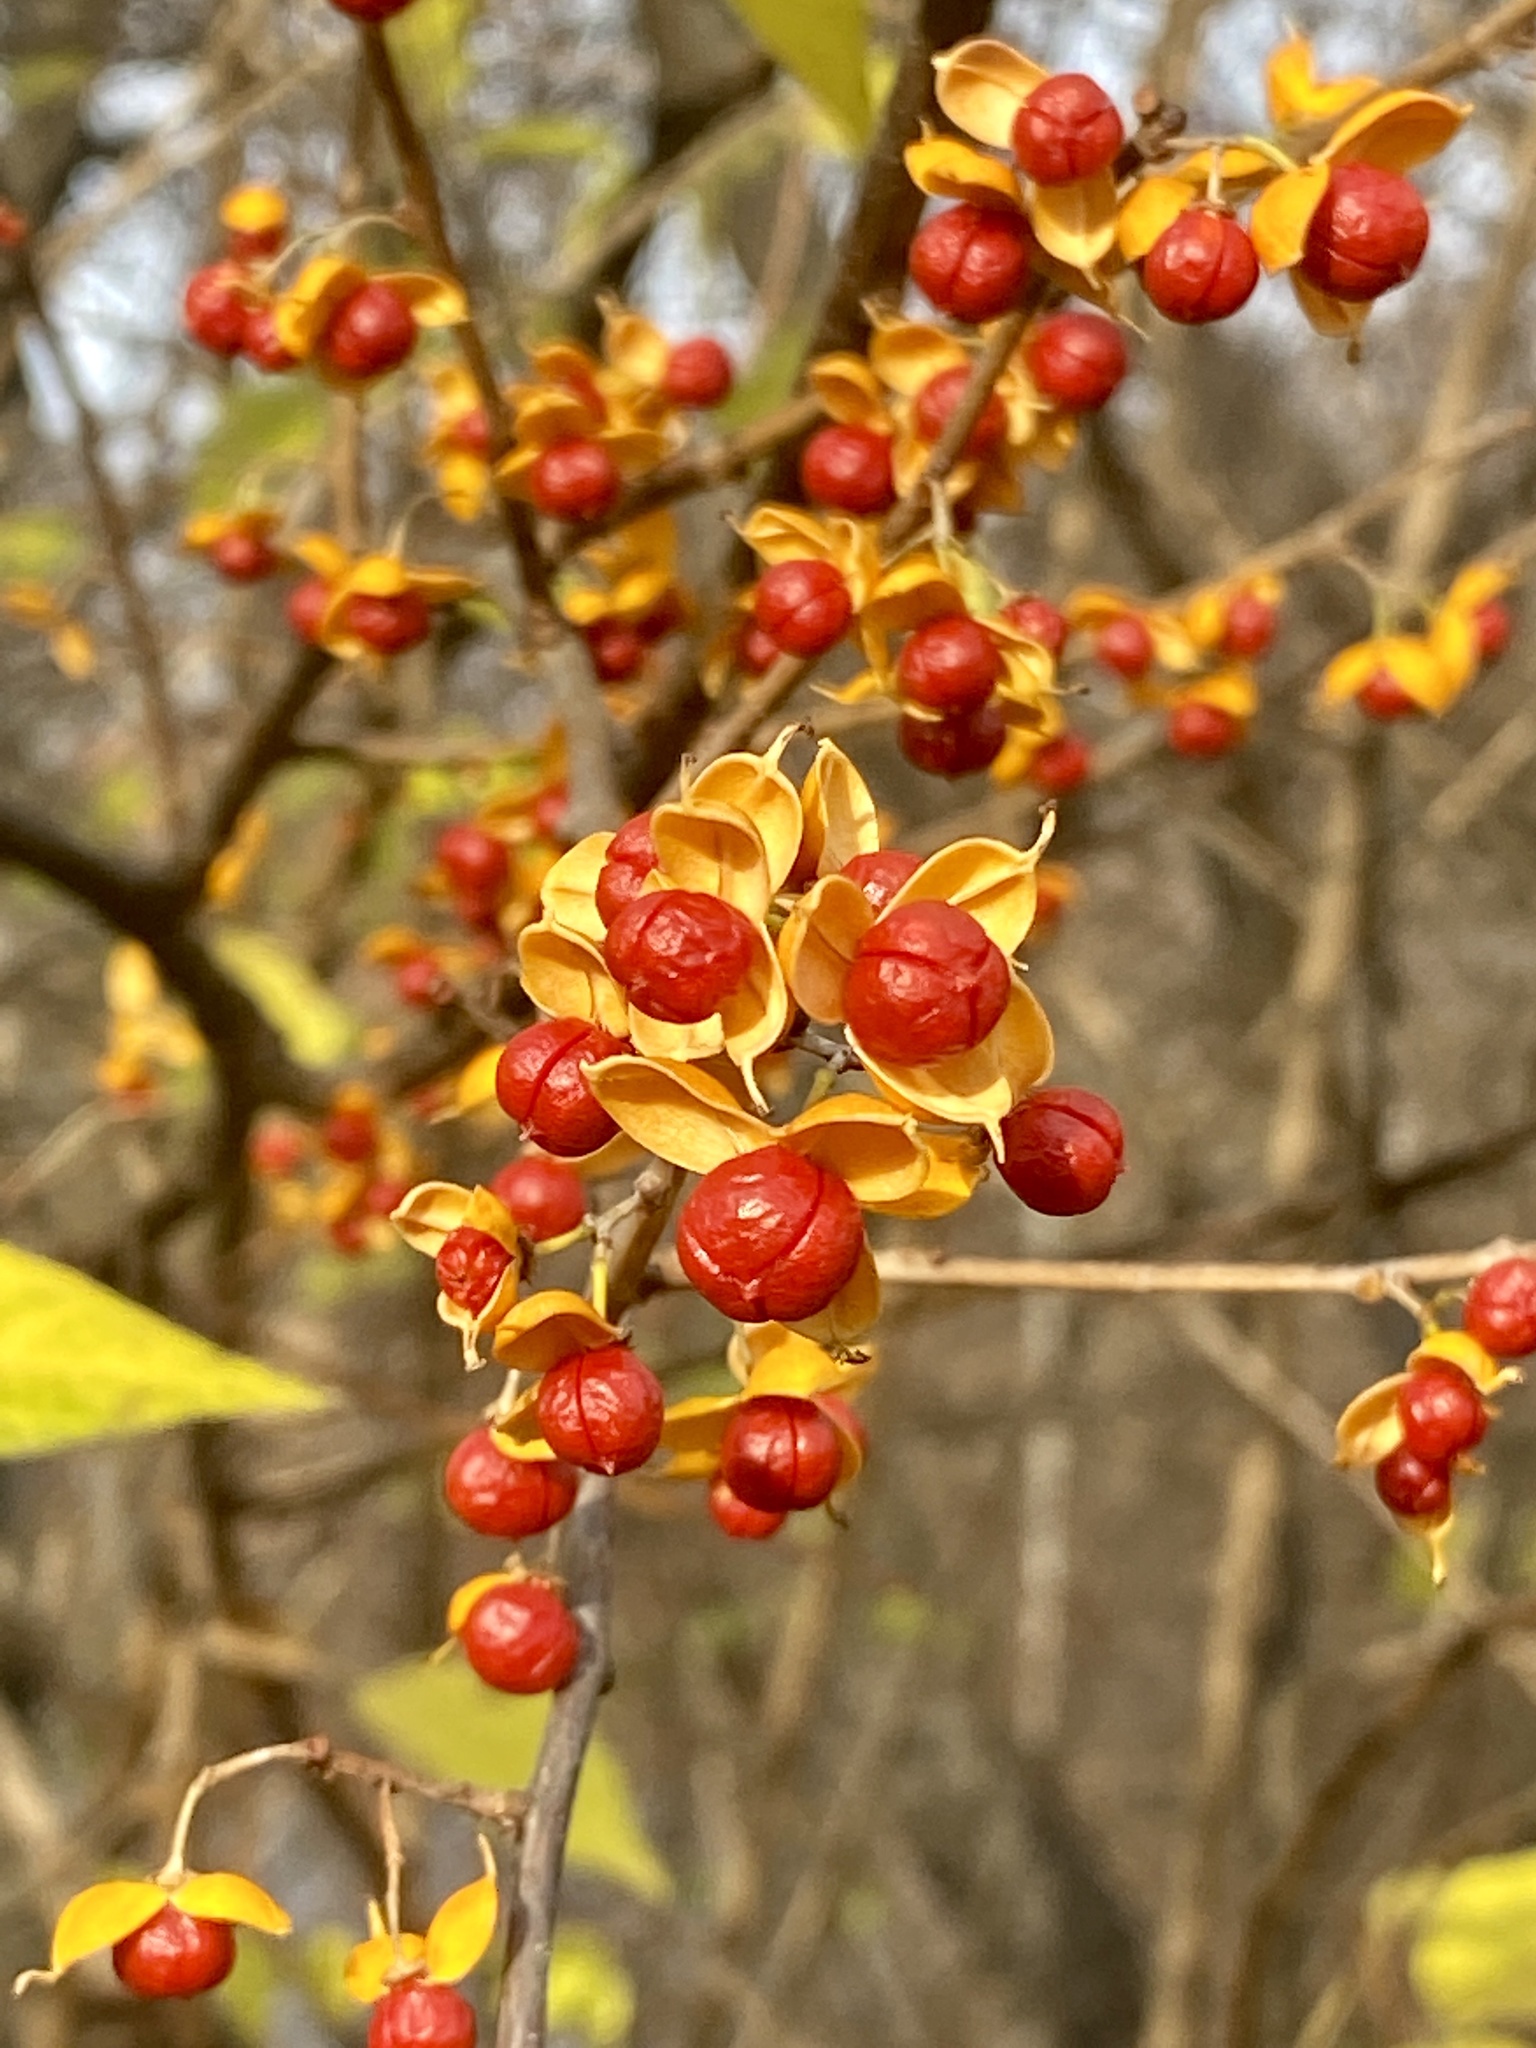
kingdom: Plantae
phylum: Tracheophyta
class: Magnoliopsida
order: Celastrales
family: Celastraceae
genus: Celastrus
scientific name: Celastrus orbiculatus
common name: Oriental bittersweet
